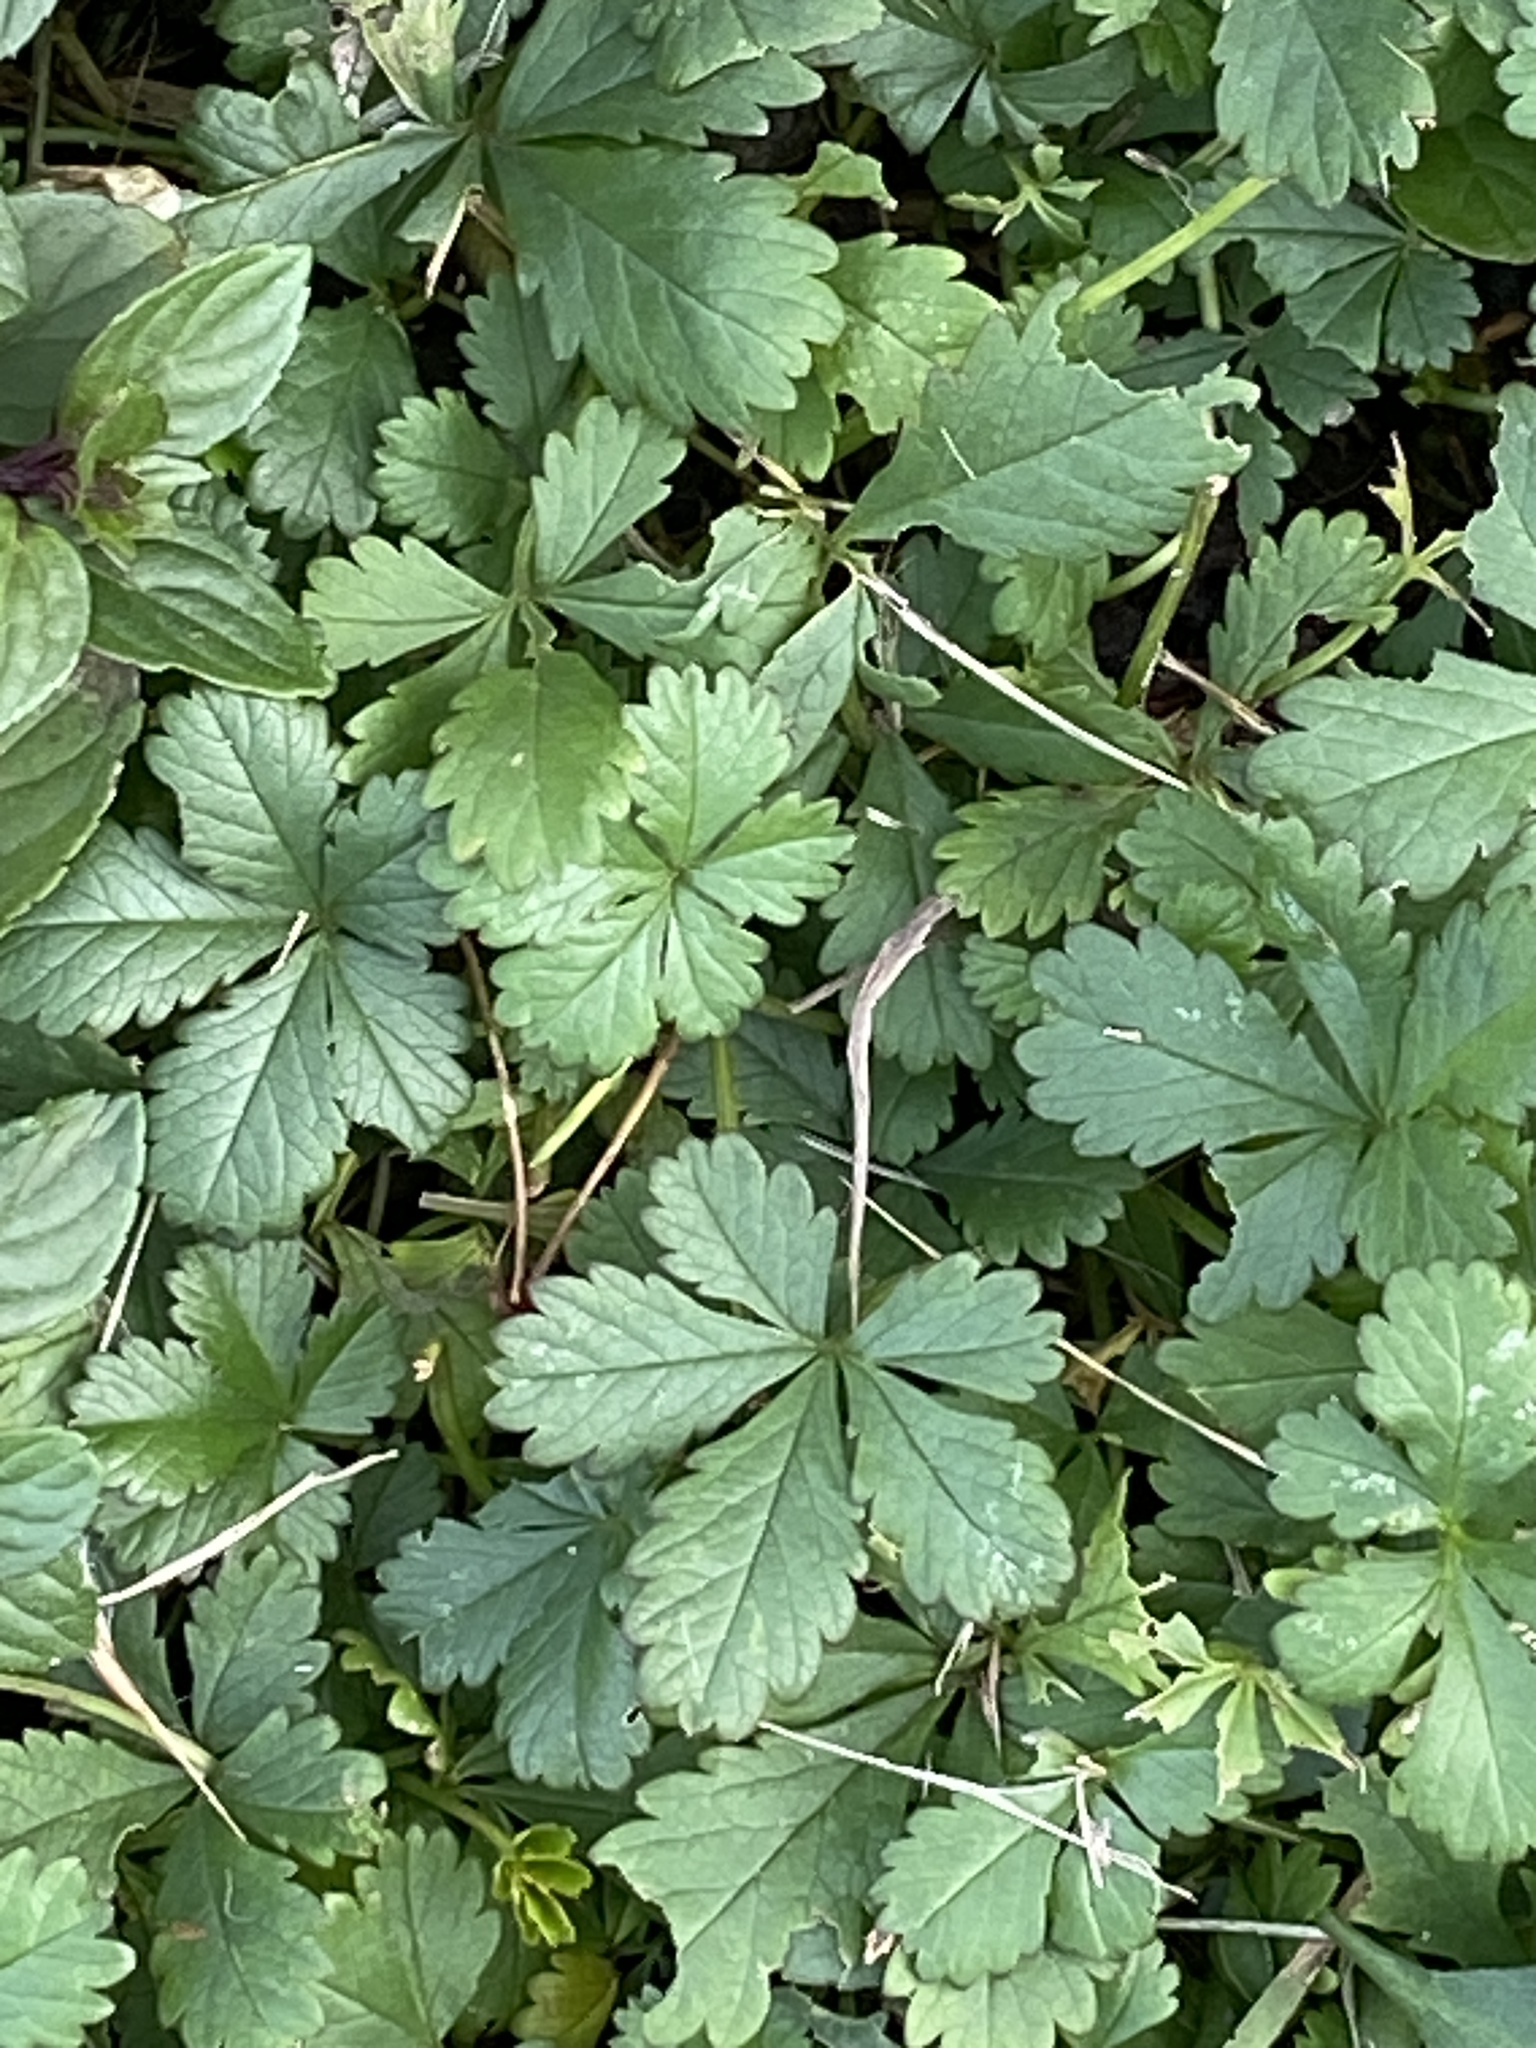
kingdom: Plantae
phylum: Tracheophyta
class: Magnoliopsida
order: Rosales
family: Rosaceae
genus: Potentilla
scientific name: Potentilla reptans
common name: Creeping cinquefoil
